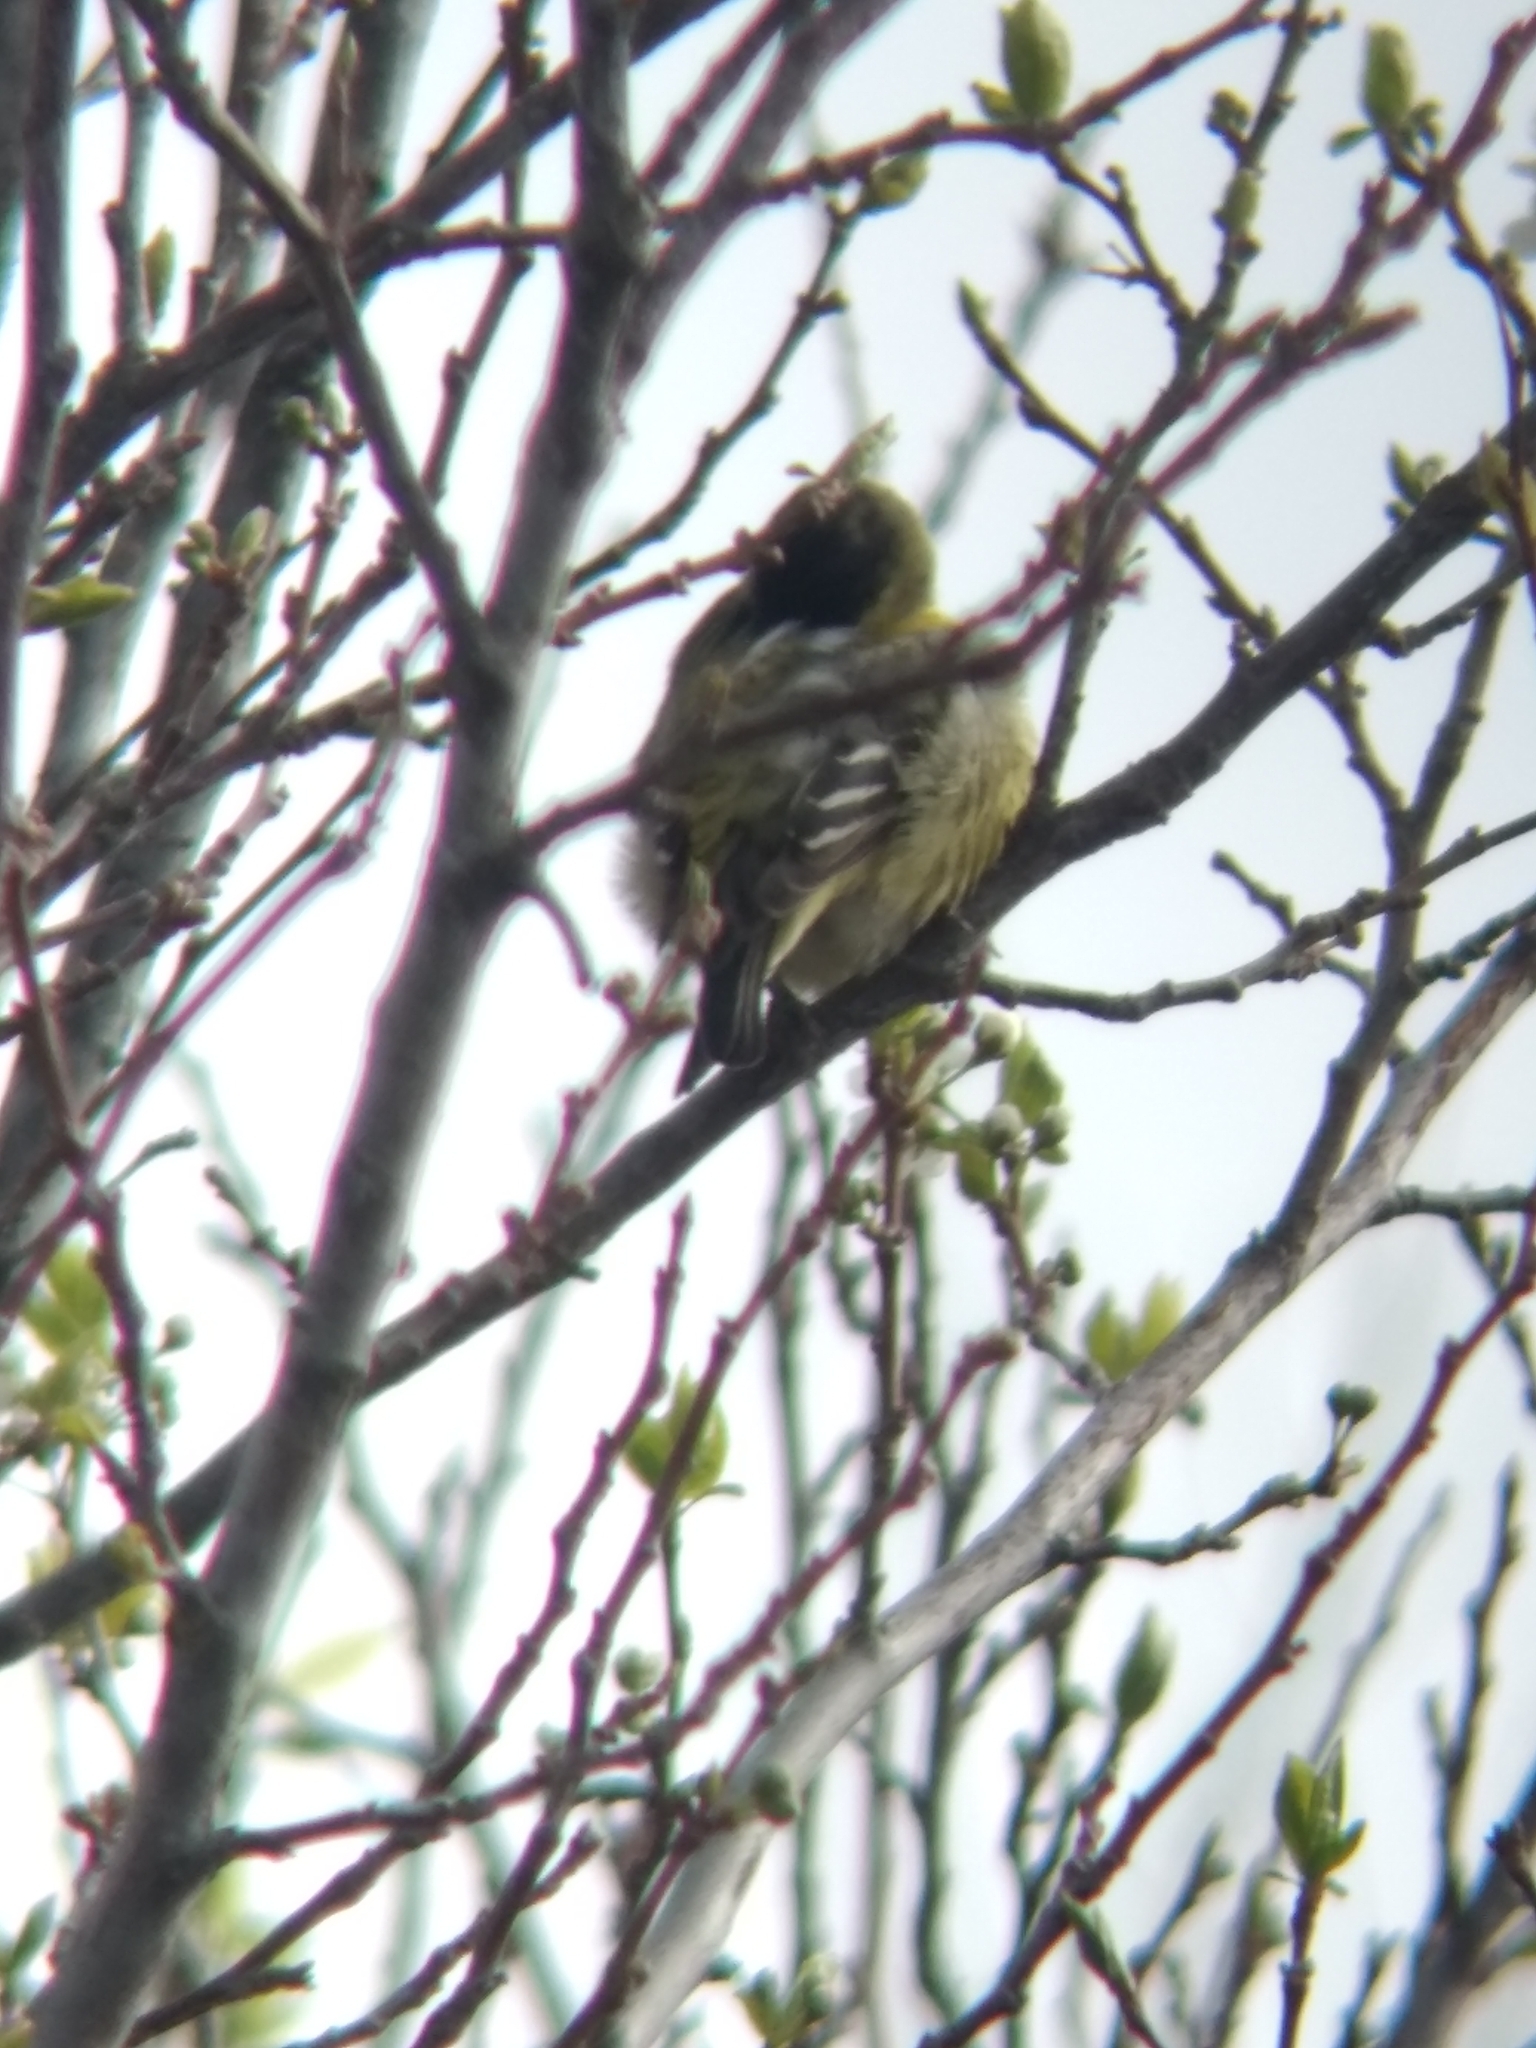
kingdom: Animalia
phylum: Chordata
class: Aves
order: Passeriformes
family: Fringillidae
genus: Spinus
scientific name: Spinus psaltria
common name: Lesser goldfinch
